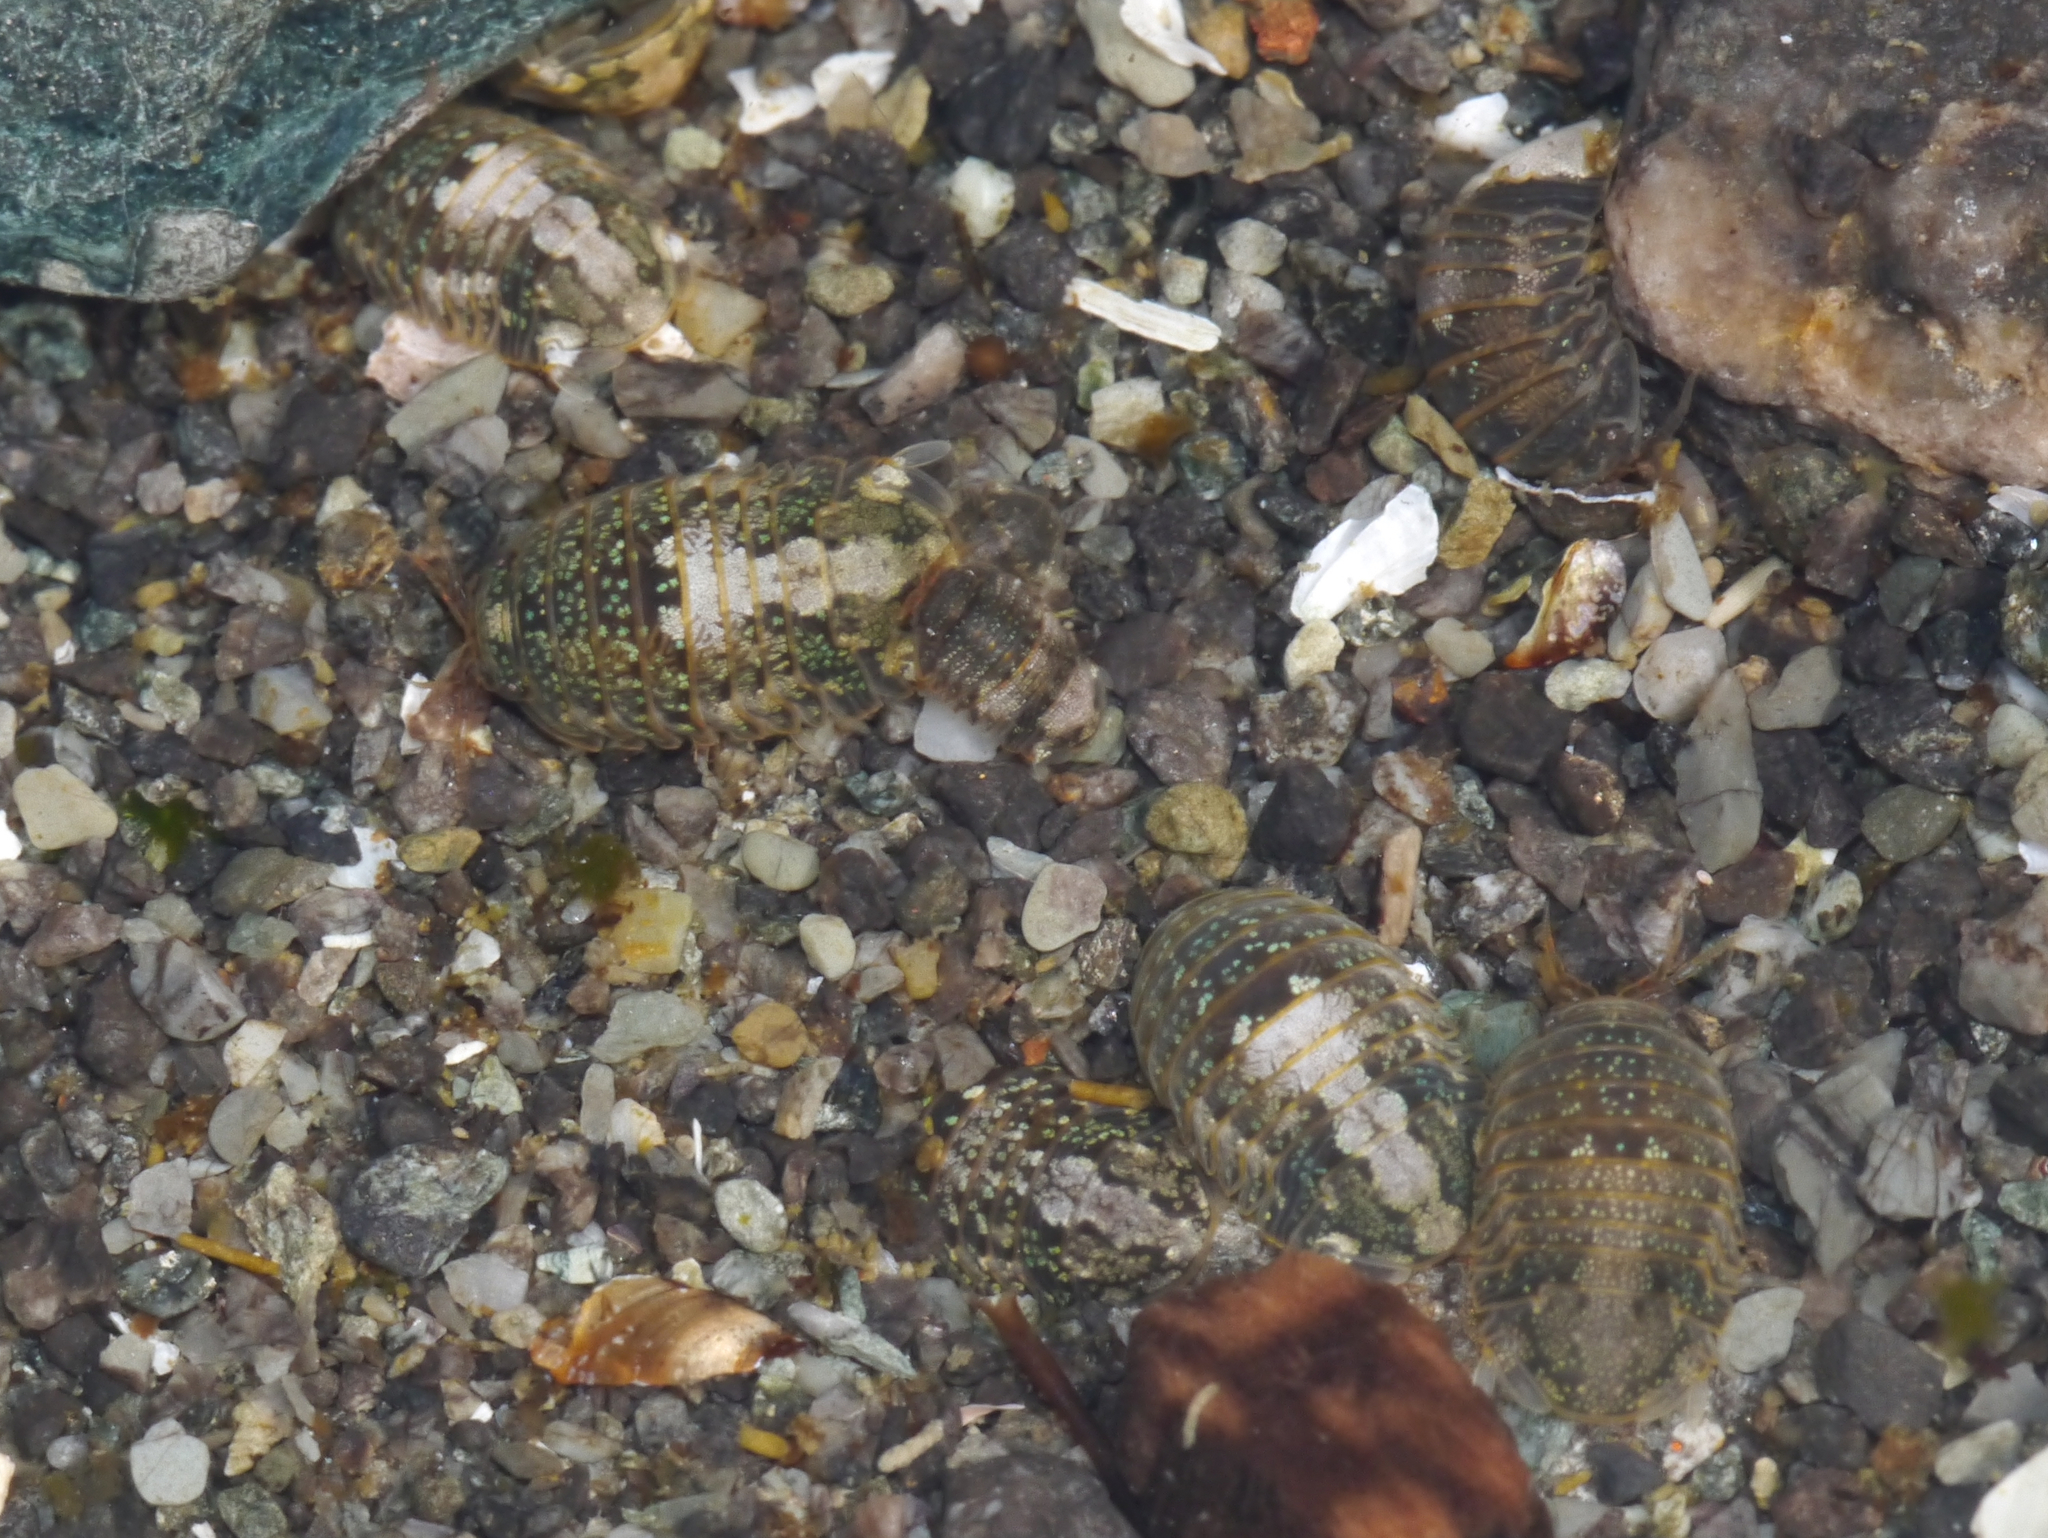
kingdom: Animalia
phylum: Arthropoda
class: Malacostraca
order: Isopoda
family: Sphaeromatidae
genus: Gnorimosphaeroma
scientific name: Gnorimosphaeroma oregonense
